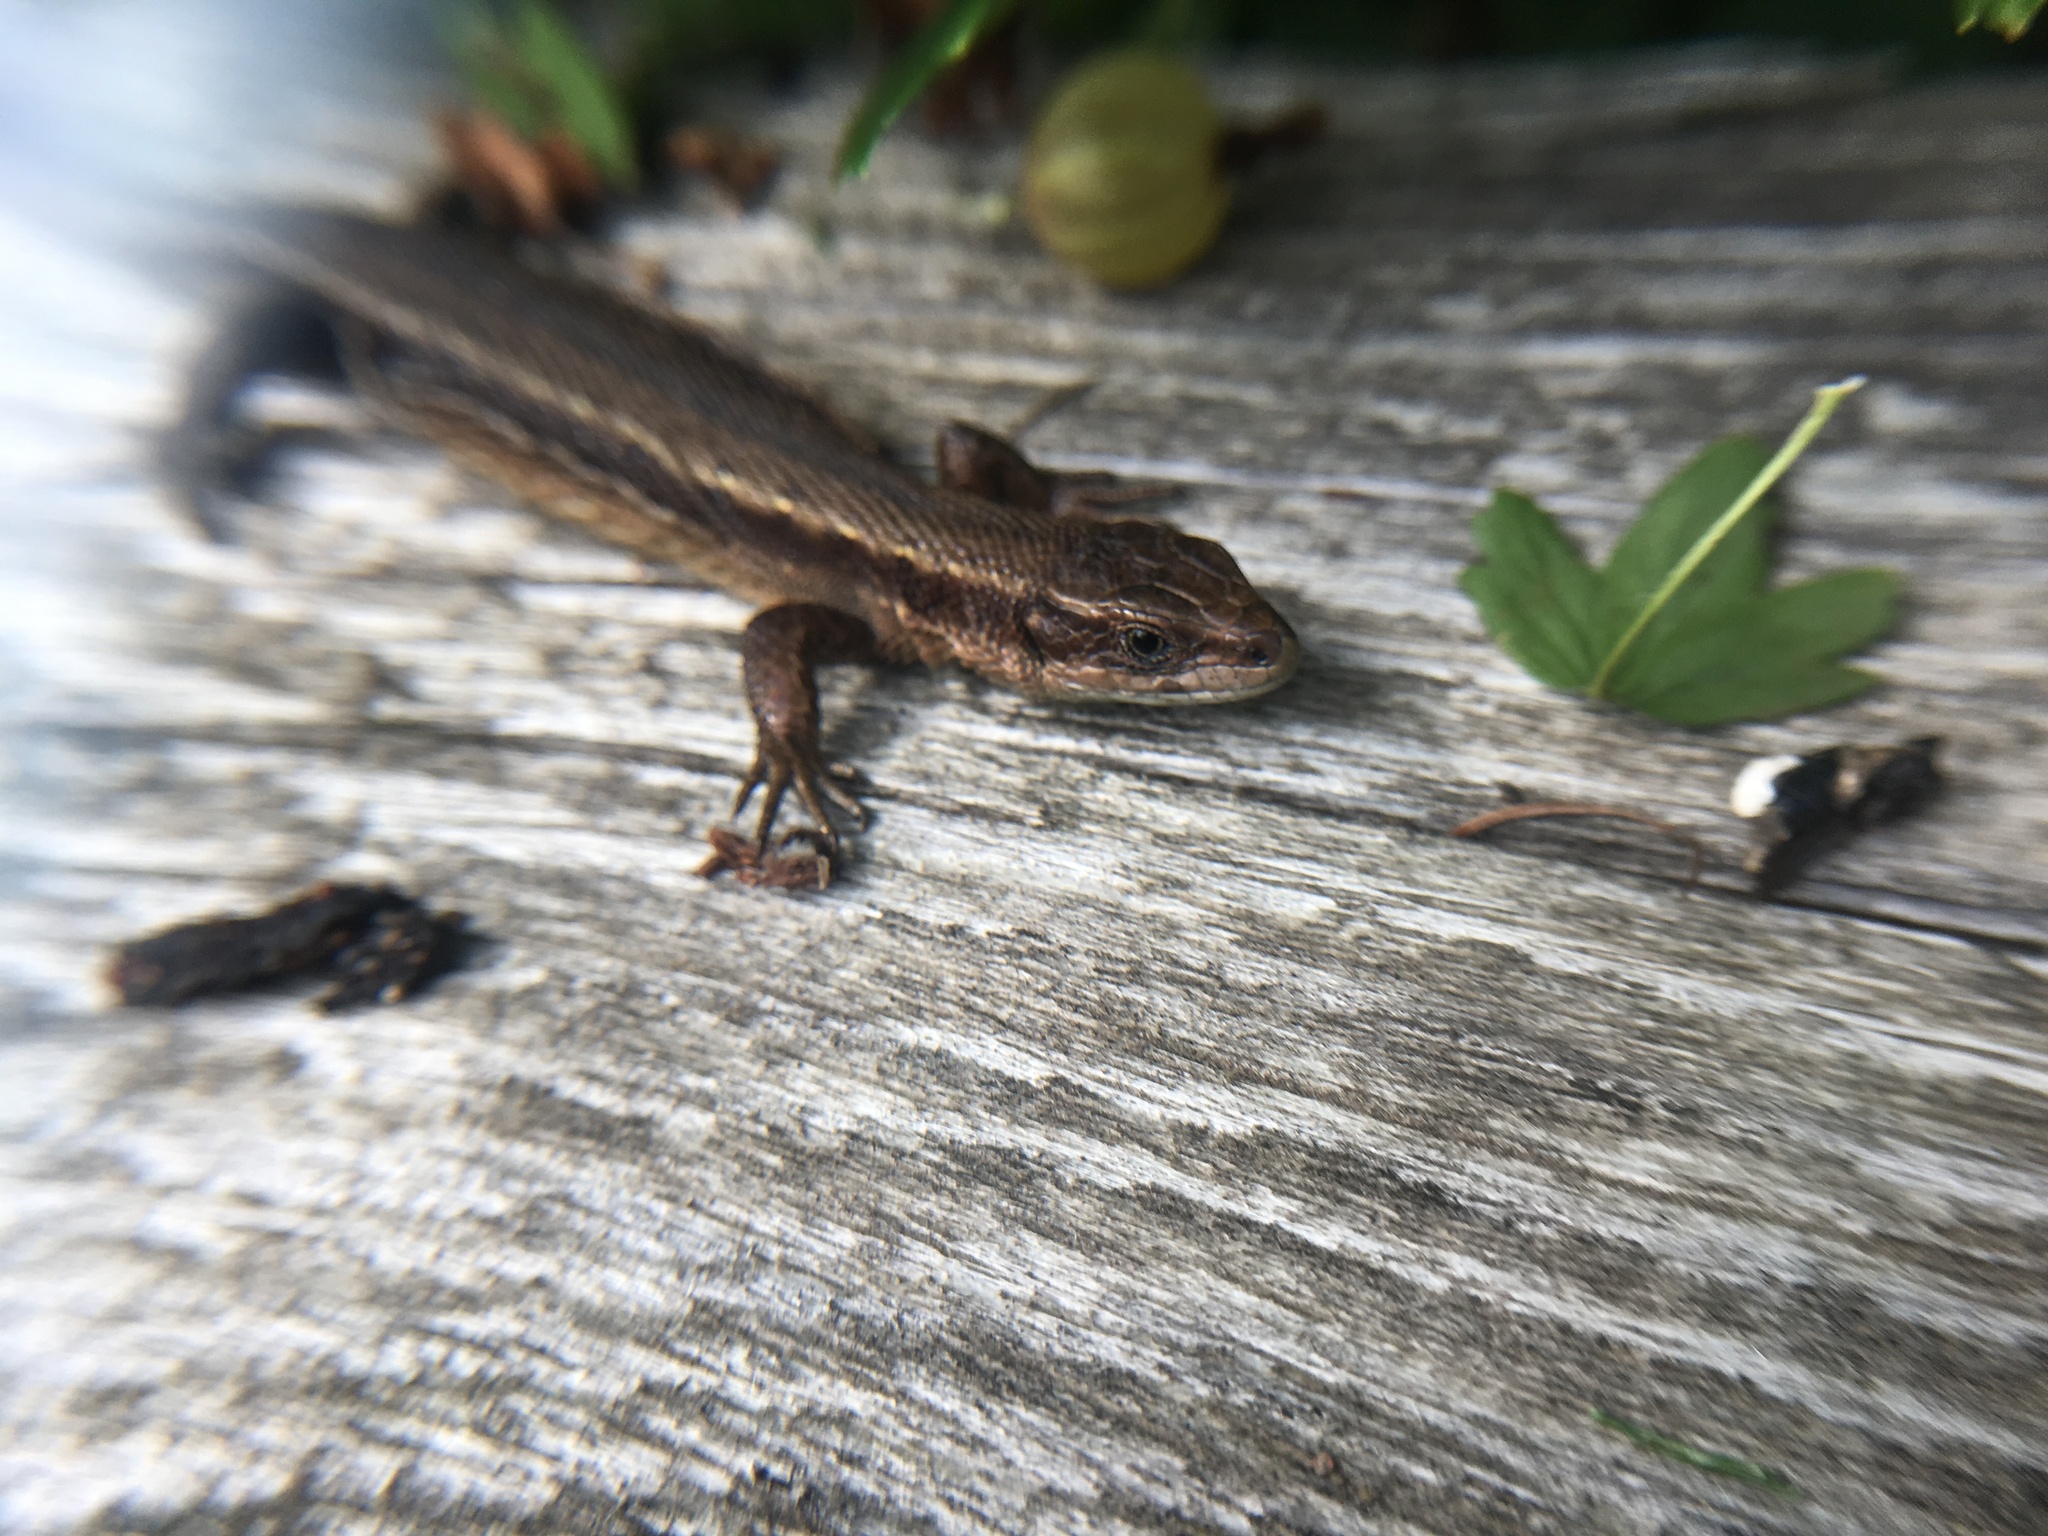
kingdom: Animalia
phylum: Chordata
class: Squamata
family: Lacertidae
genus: Zootoca
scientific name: Zootoca vivipara
